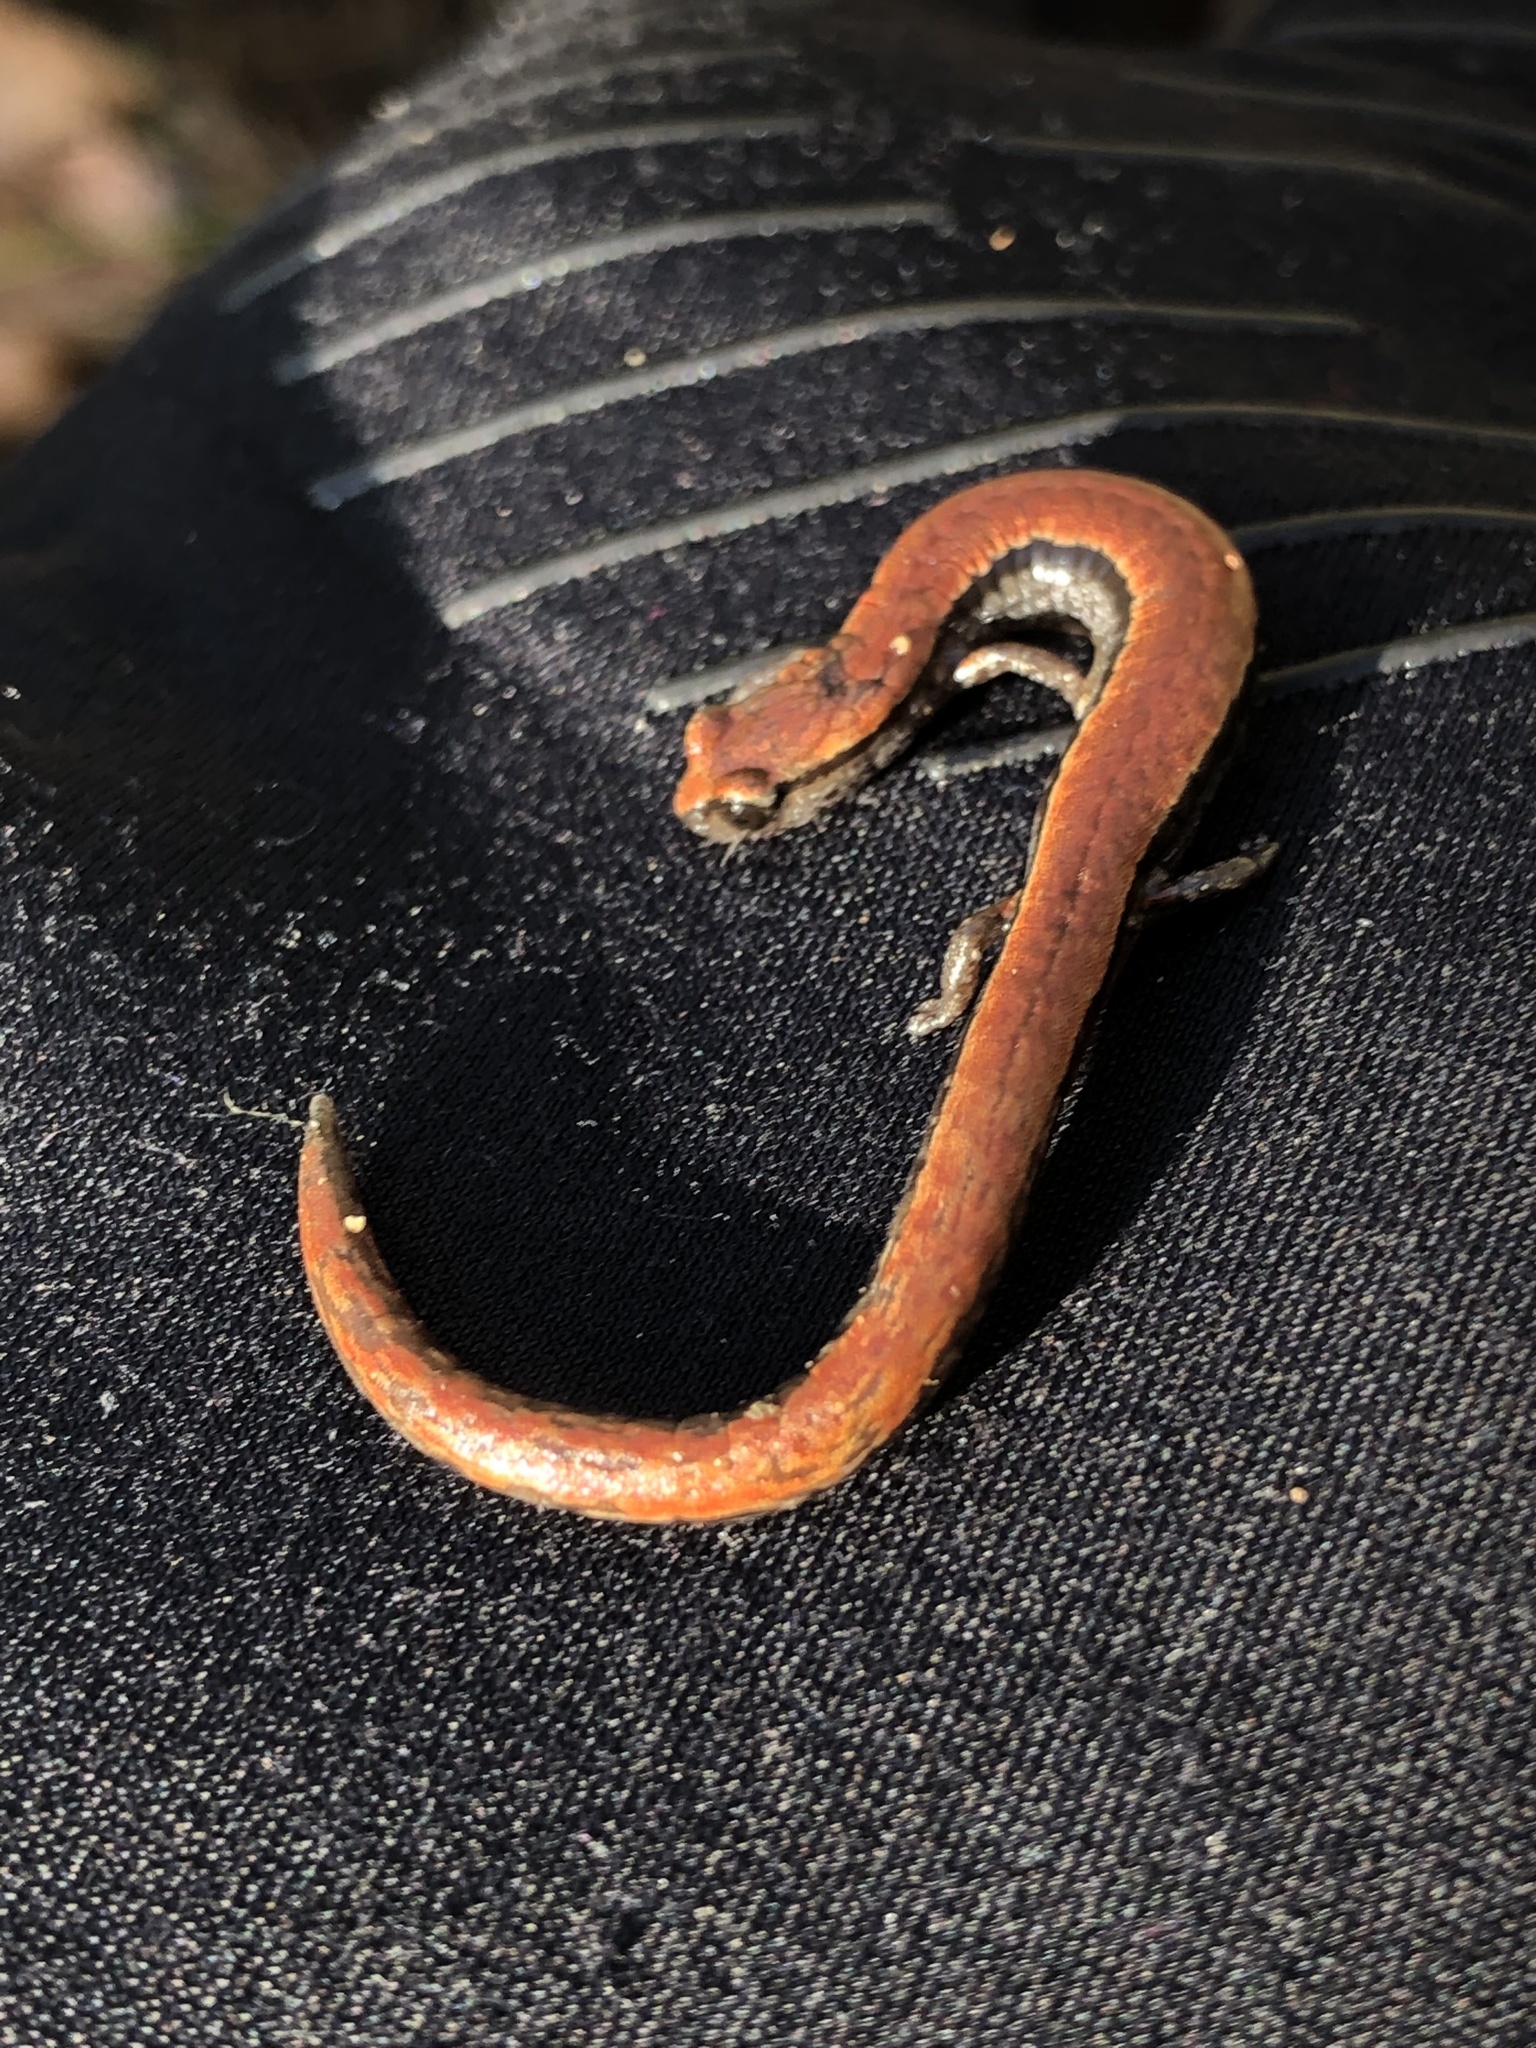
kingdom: Animalia
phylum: Chordata
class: Amphibia
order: Caudata
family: Plethodontidae
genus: Batrachoseps
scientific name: Batrachoseps attenuatus
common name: California slender salamander
